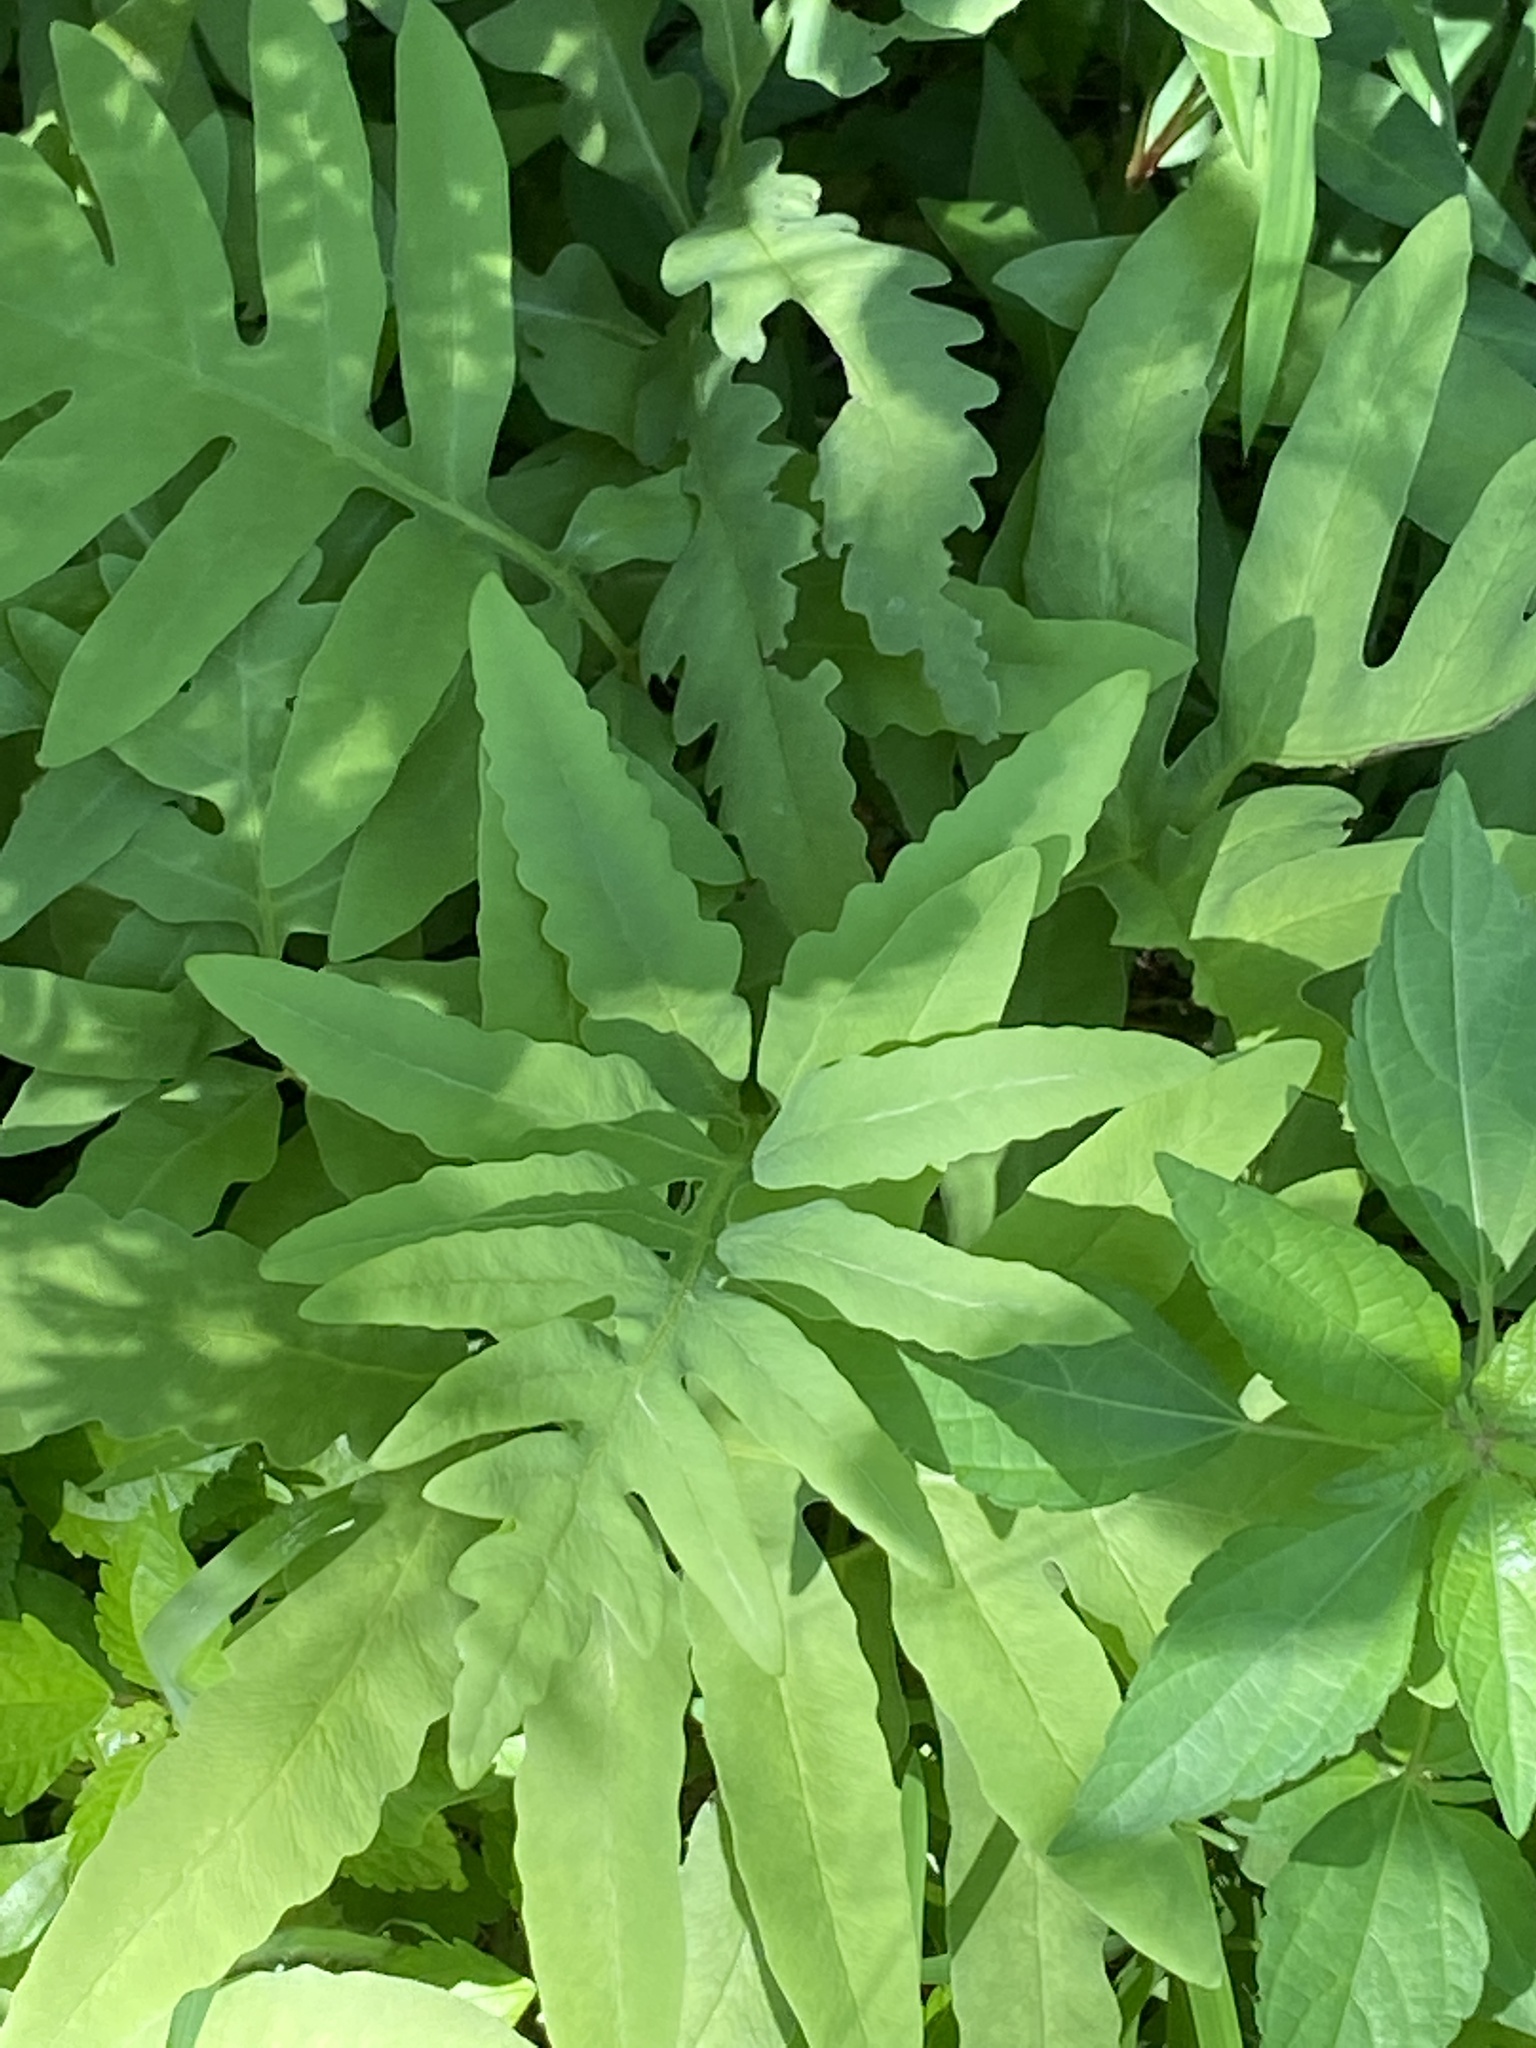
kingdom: Plantae
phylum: Tracheophyta
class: Polypodiopsida
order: Polypodiales
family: Onocleaceae
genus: Onoclea
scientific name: Onoclea sensibilis
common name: Sensitive fern
